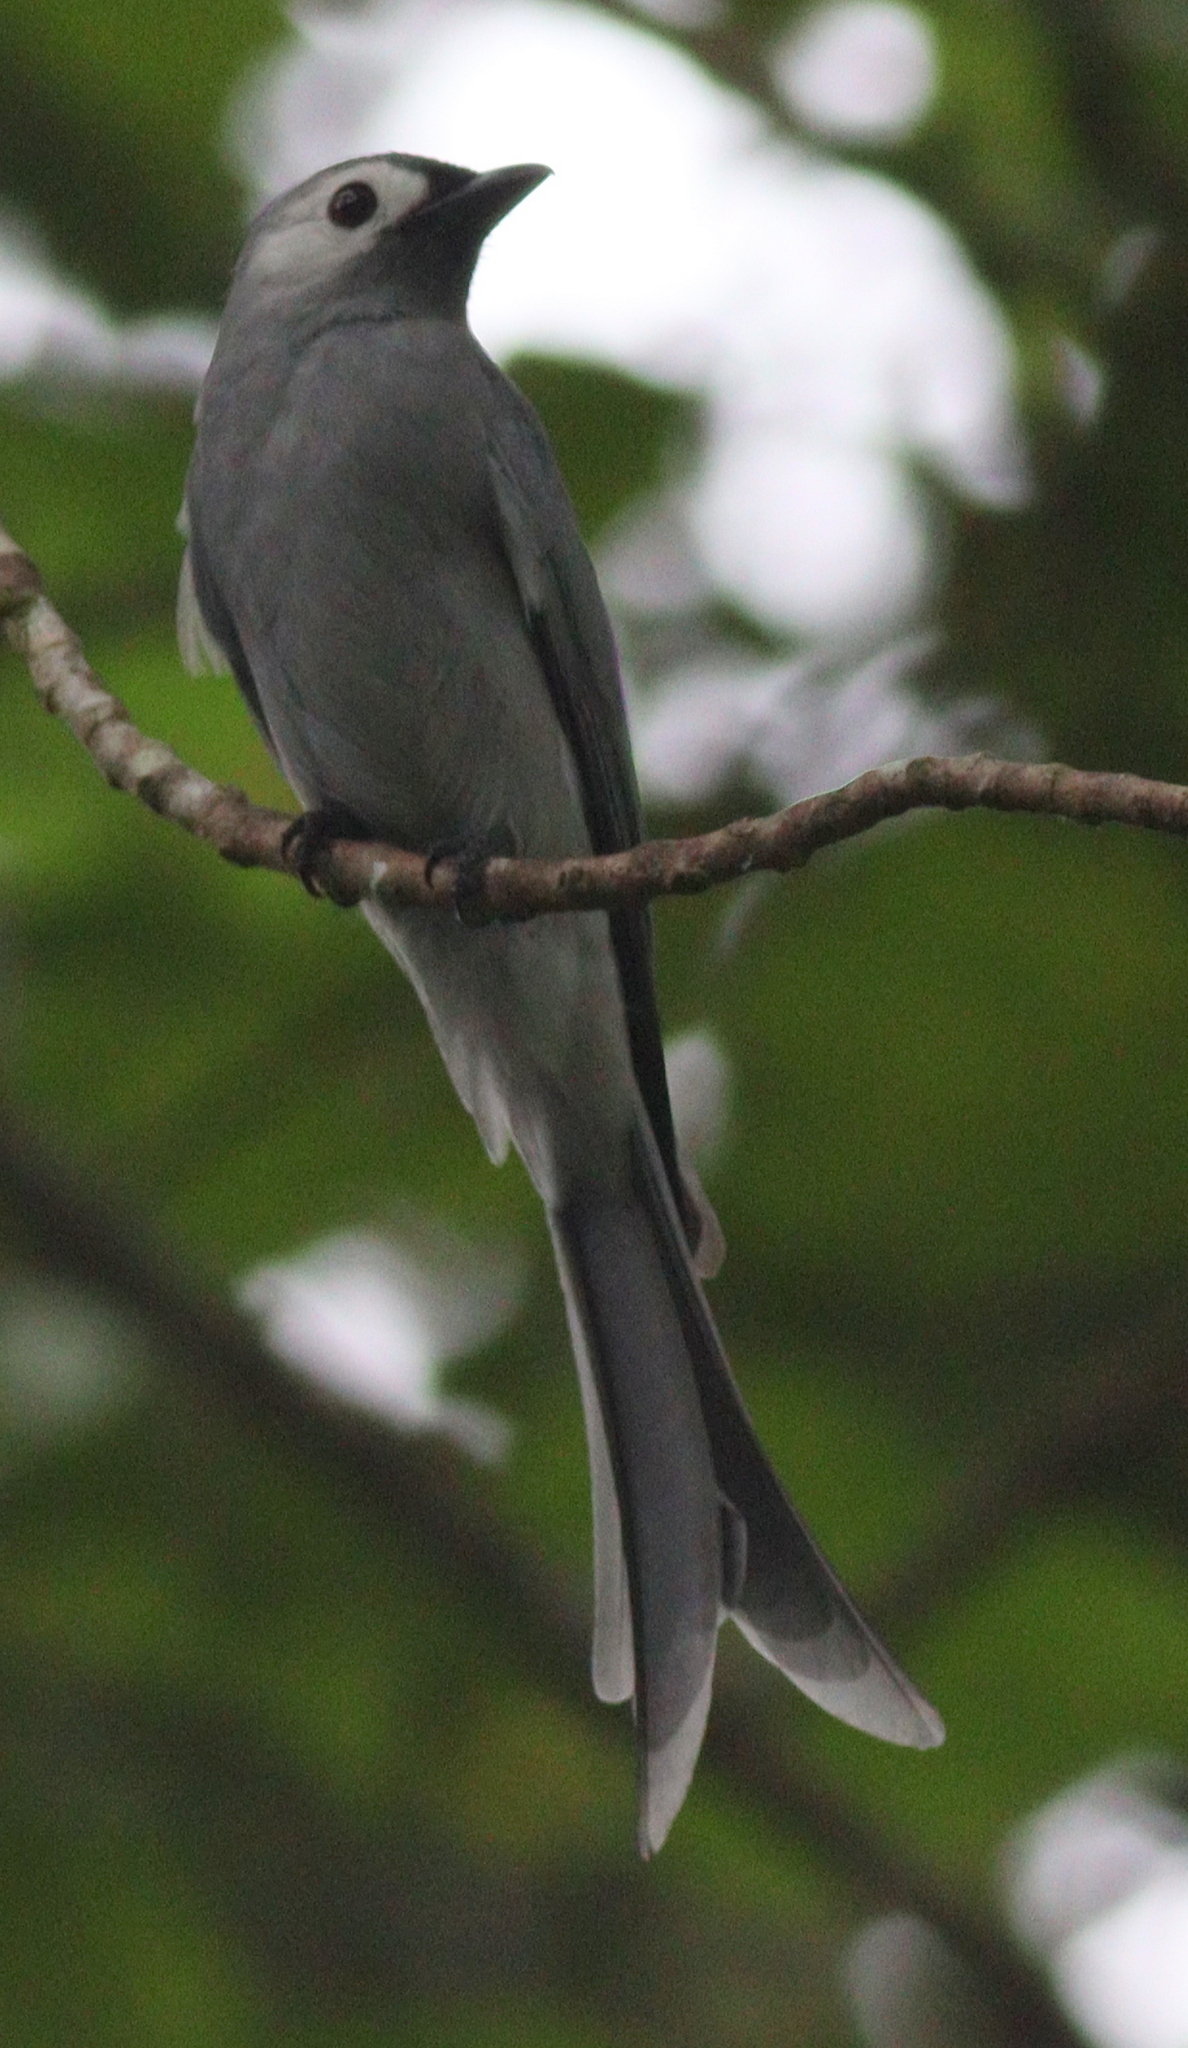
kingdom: Animalia
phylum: Chordata
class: Aves
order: Passeriformes
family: Dicruridae
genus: Dicrurus
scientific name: Dicrurus leucophaeus
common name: Ashy drongo
